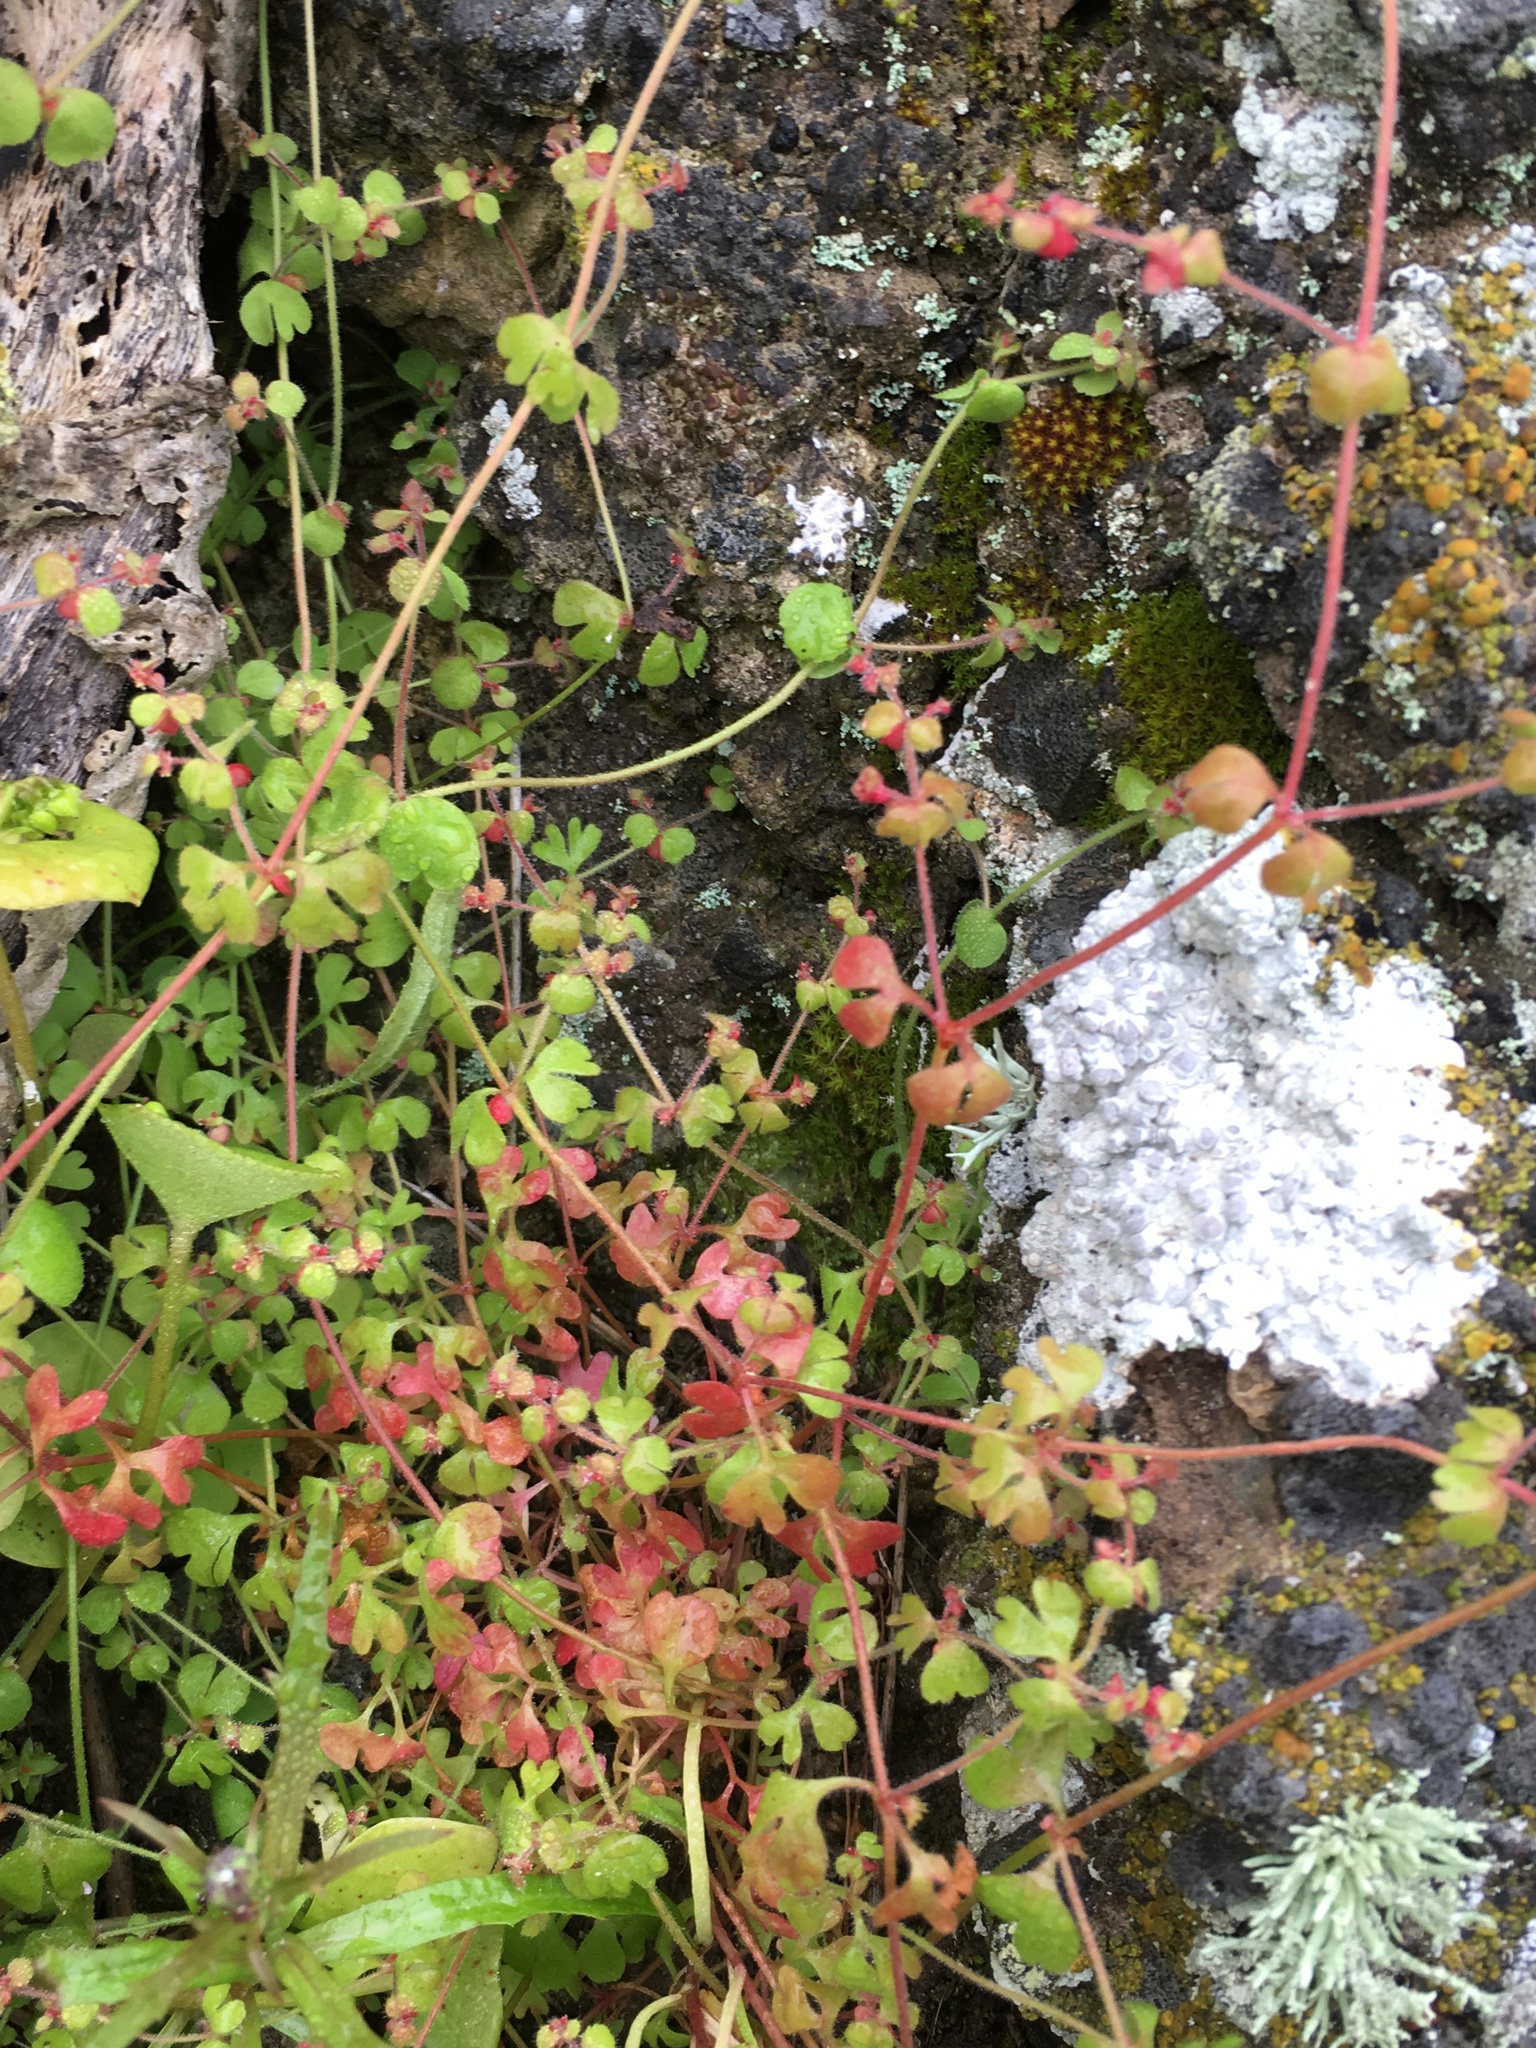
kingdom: Plantae
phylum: Tracheophyta
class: Magnoliopsida
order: Caryophyllales
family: Polygonaceae
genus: Pterostegia
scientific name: Pterostegia drymarioides
